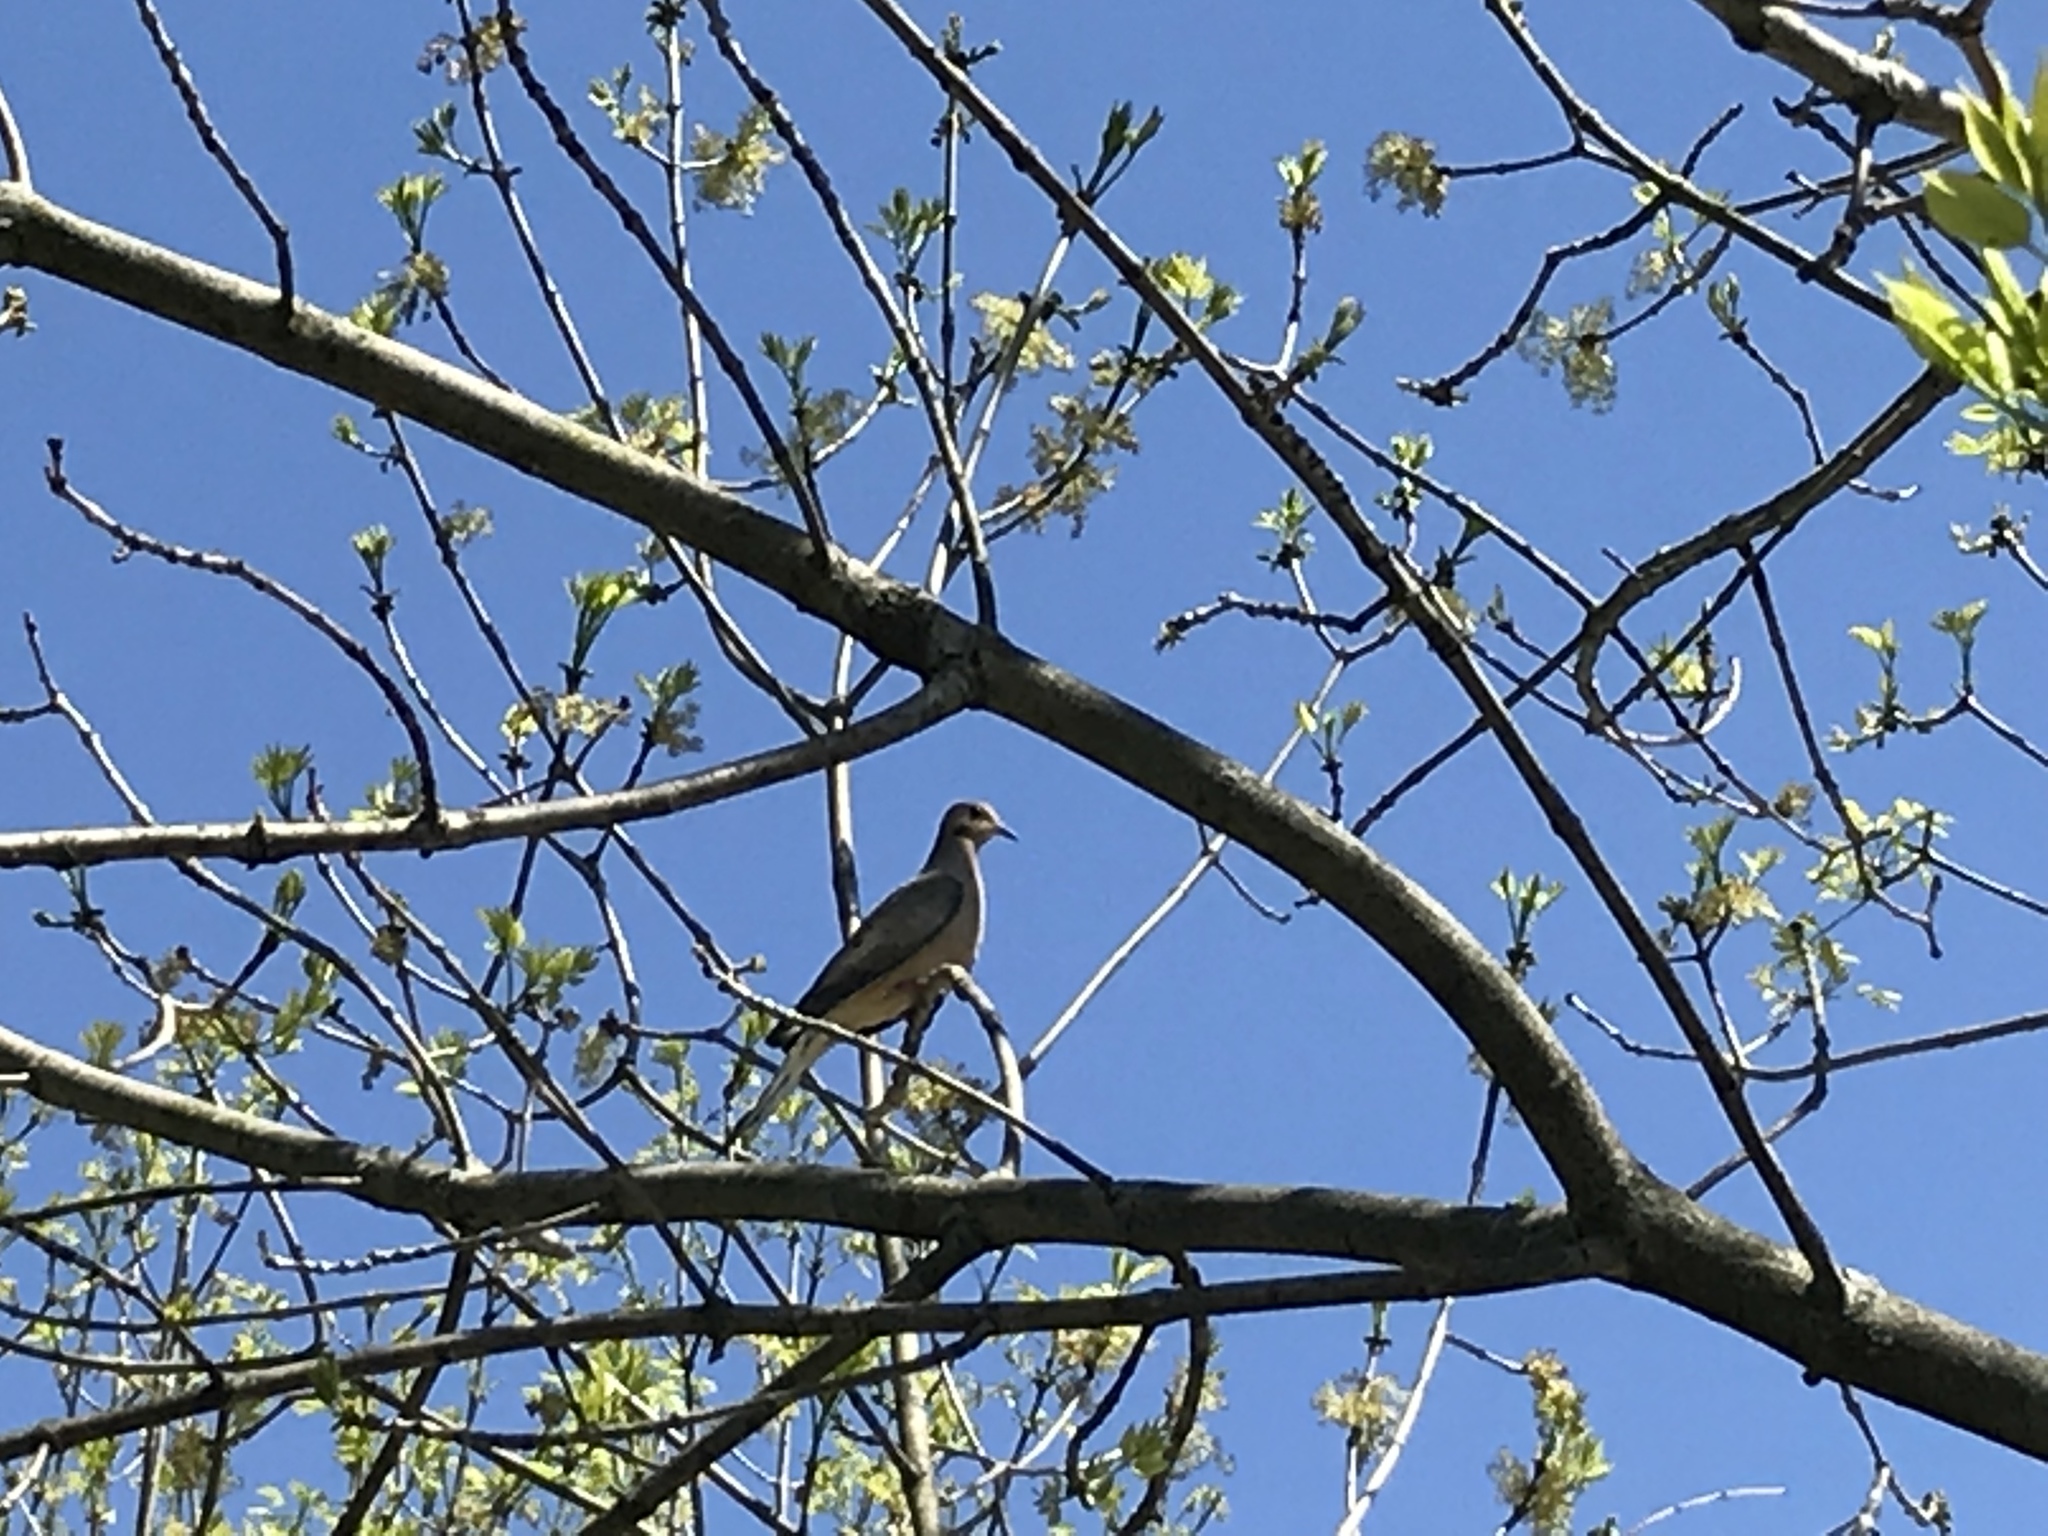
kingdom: Animalia
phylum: Chordata
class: Aves
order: Columbiformes
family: Columbidae
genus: Zenaida
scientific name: Zenaida macroura
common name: Mourning dove
